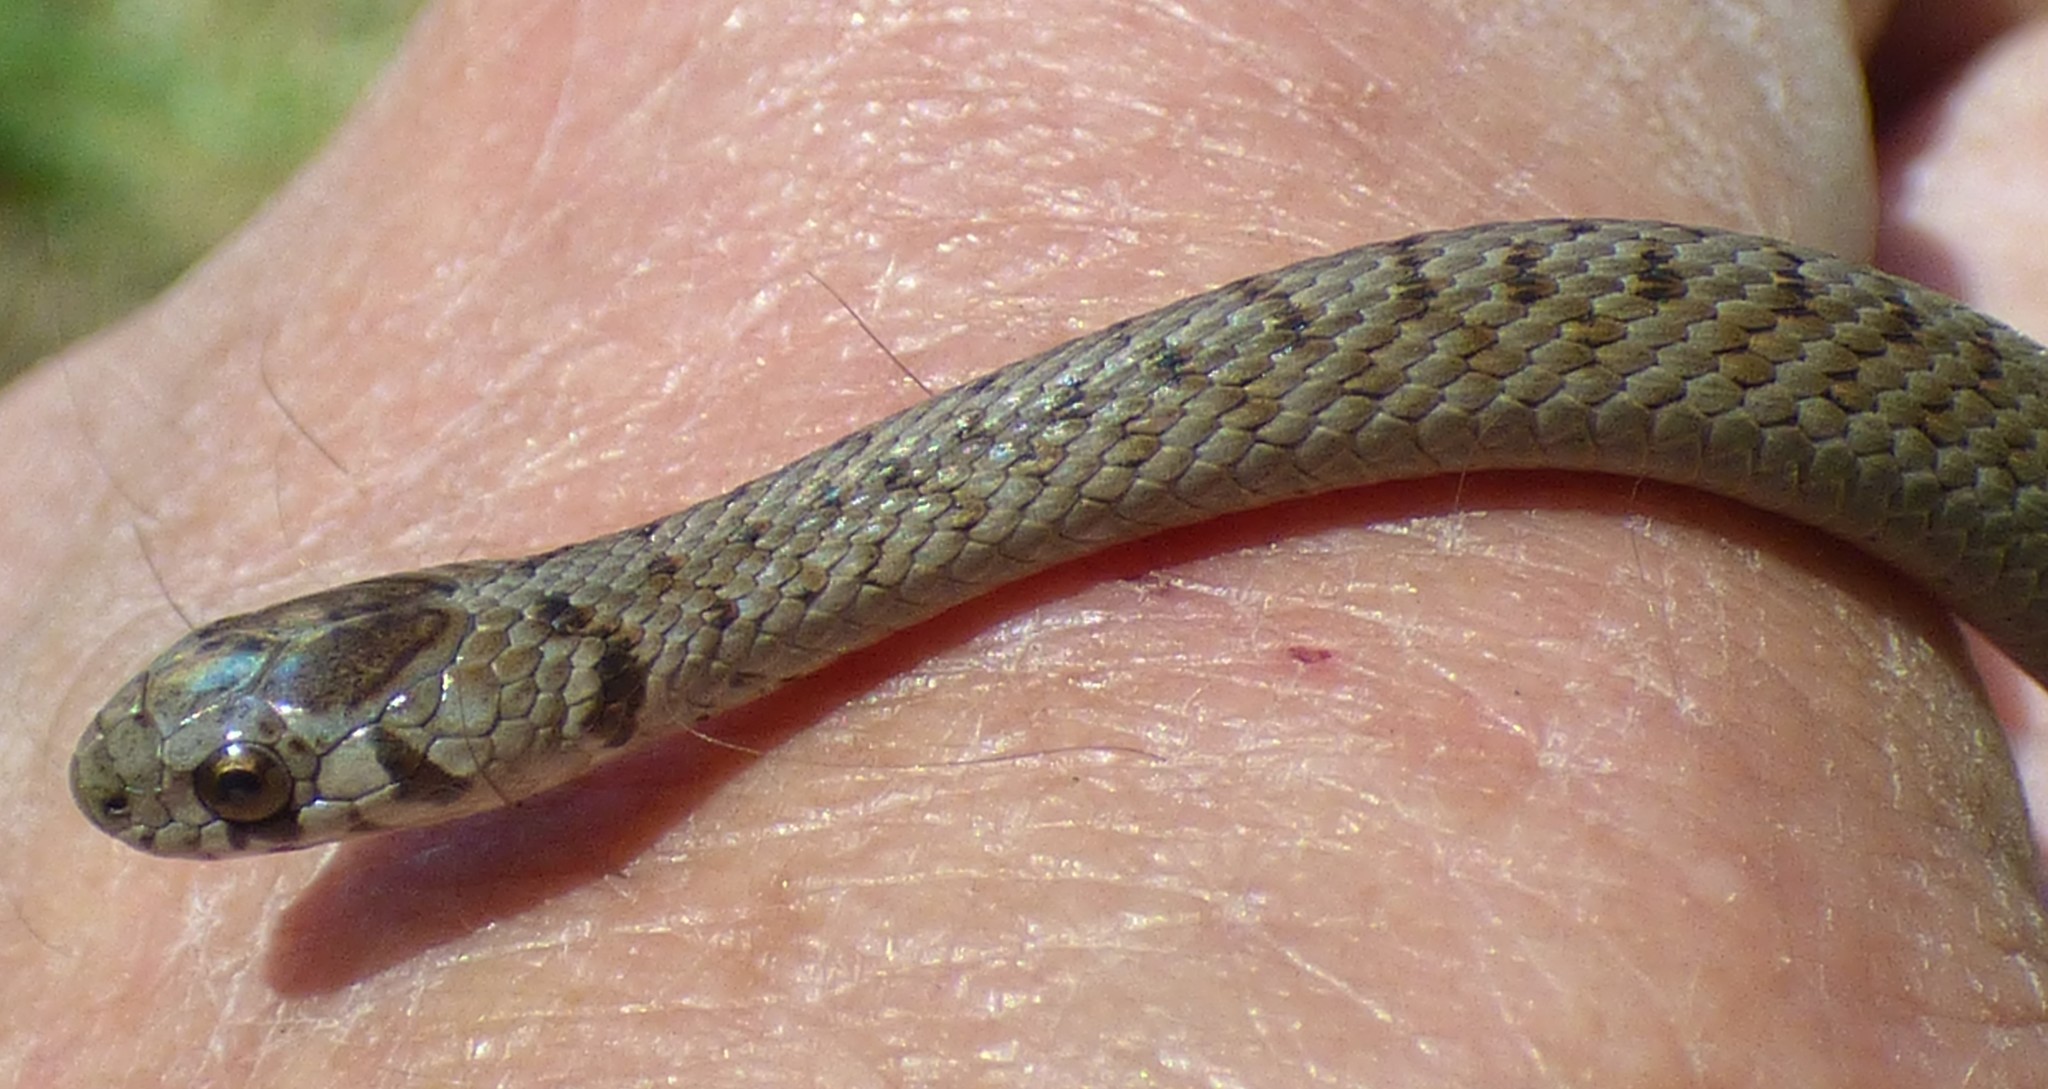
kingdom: Animalia
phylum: Chordata
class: Squamata
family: Colubridae
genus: Storeria
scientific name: Storeria dekayi
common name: (dekay’s) brown snake
